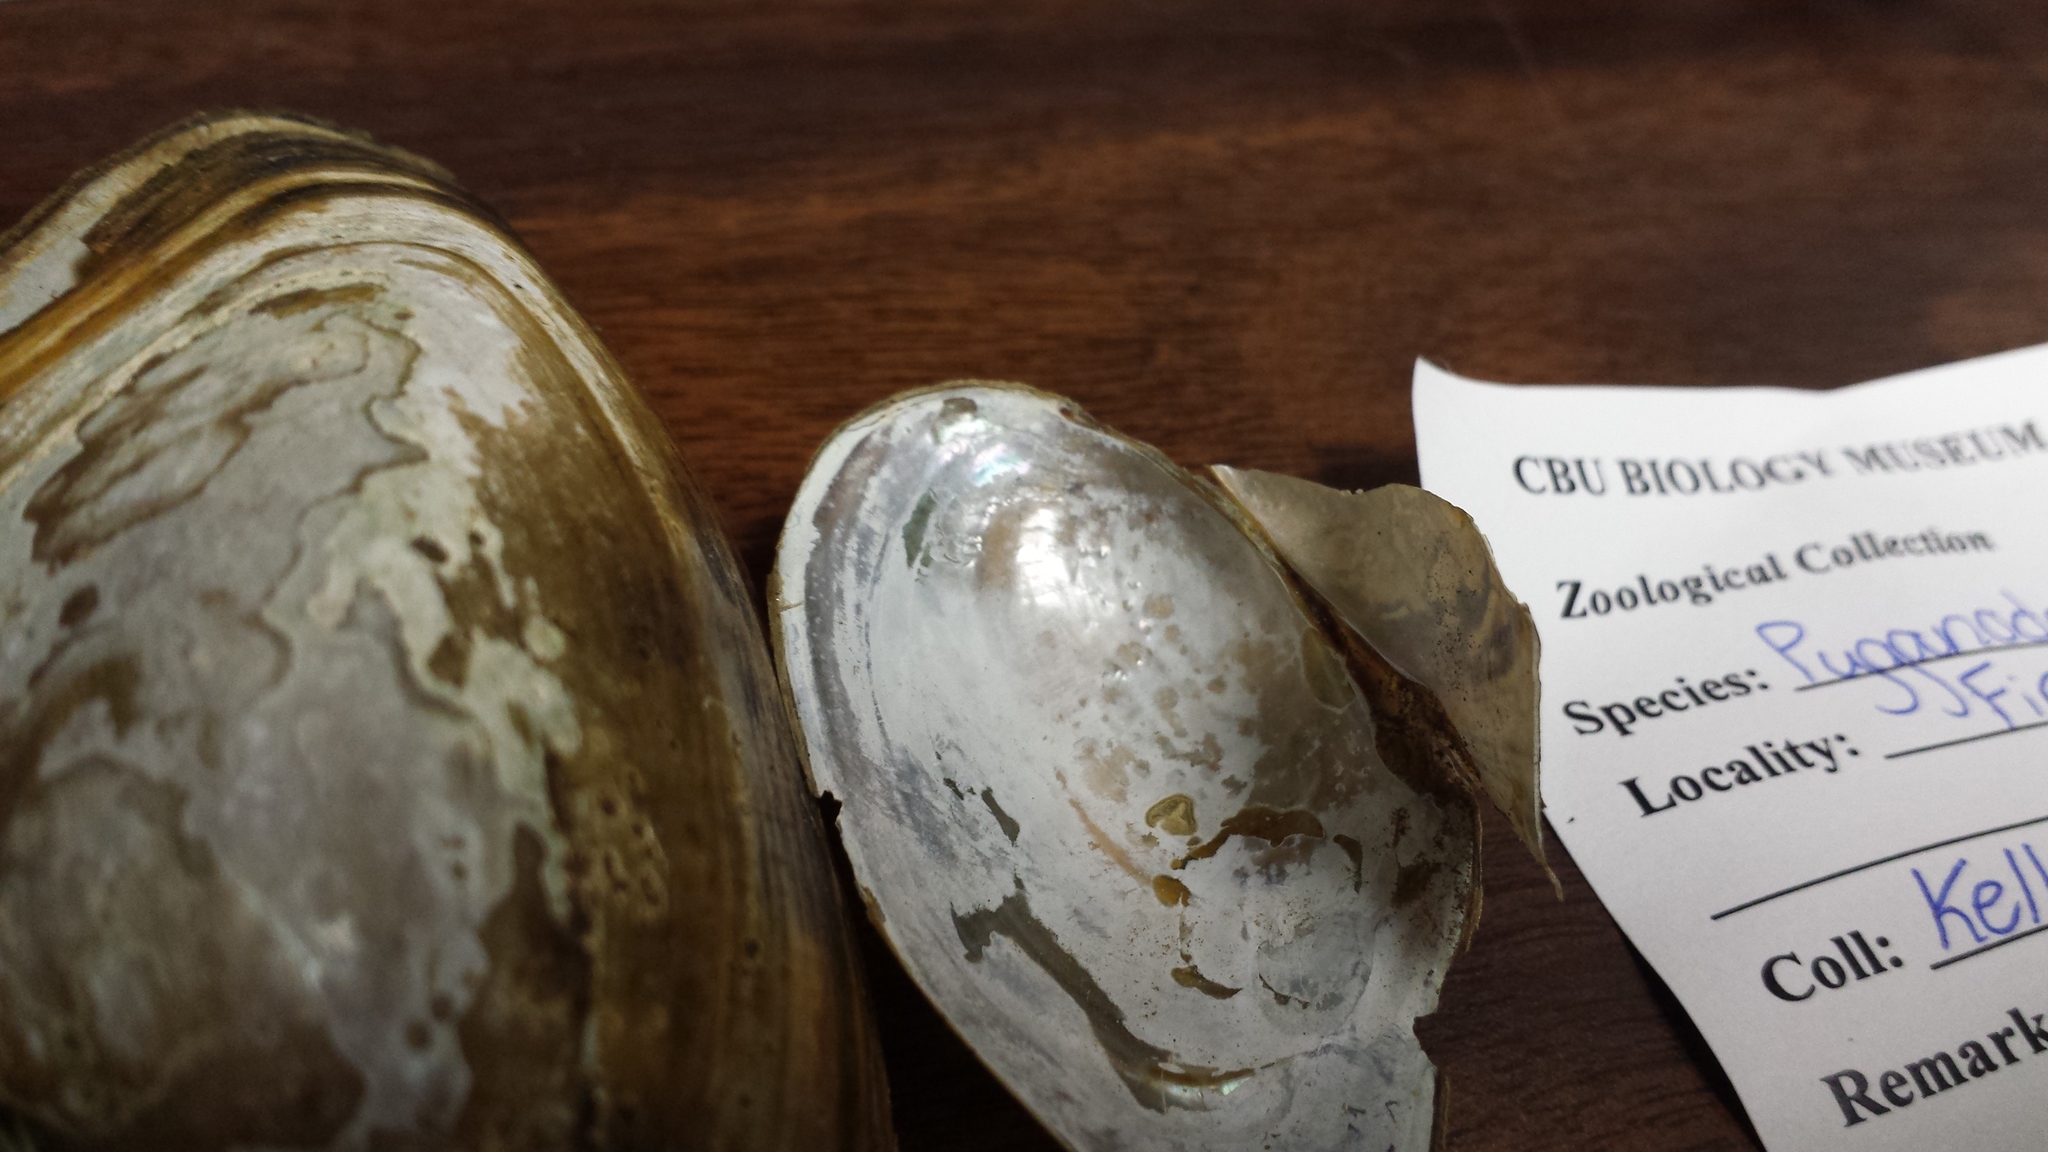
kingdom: Animalia
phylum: Mollusca
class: Bivalvia
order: Unionida
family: Unionidae
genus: Pyganodon
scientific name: Pyganodon cataracta
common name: Eastern floater
